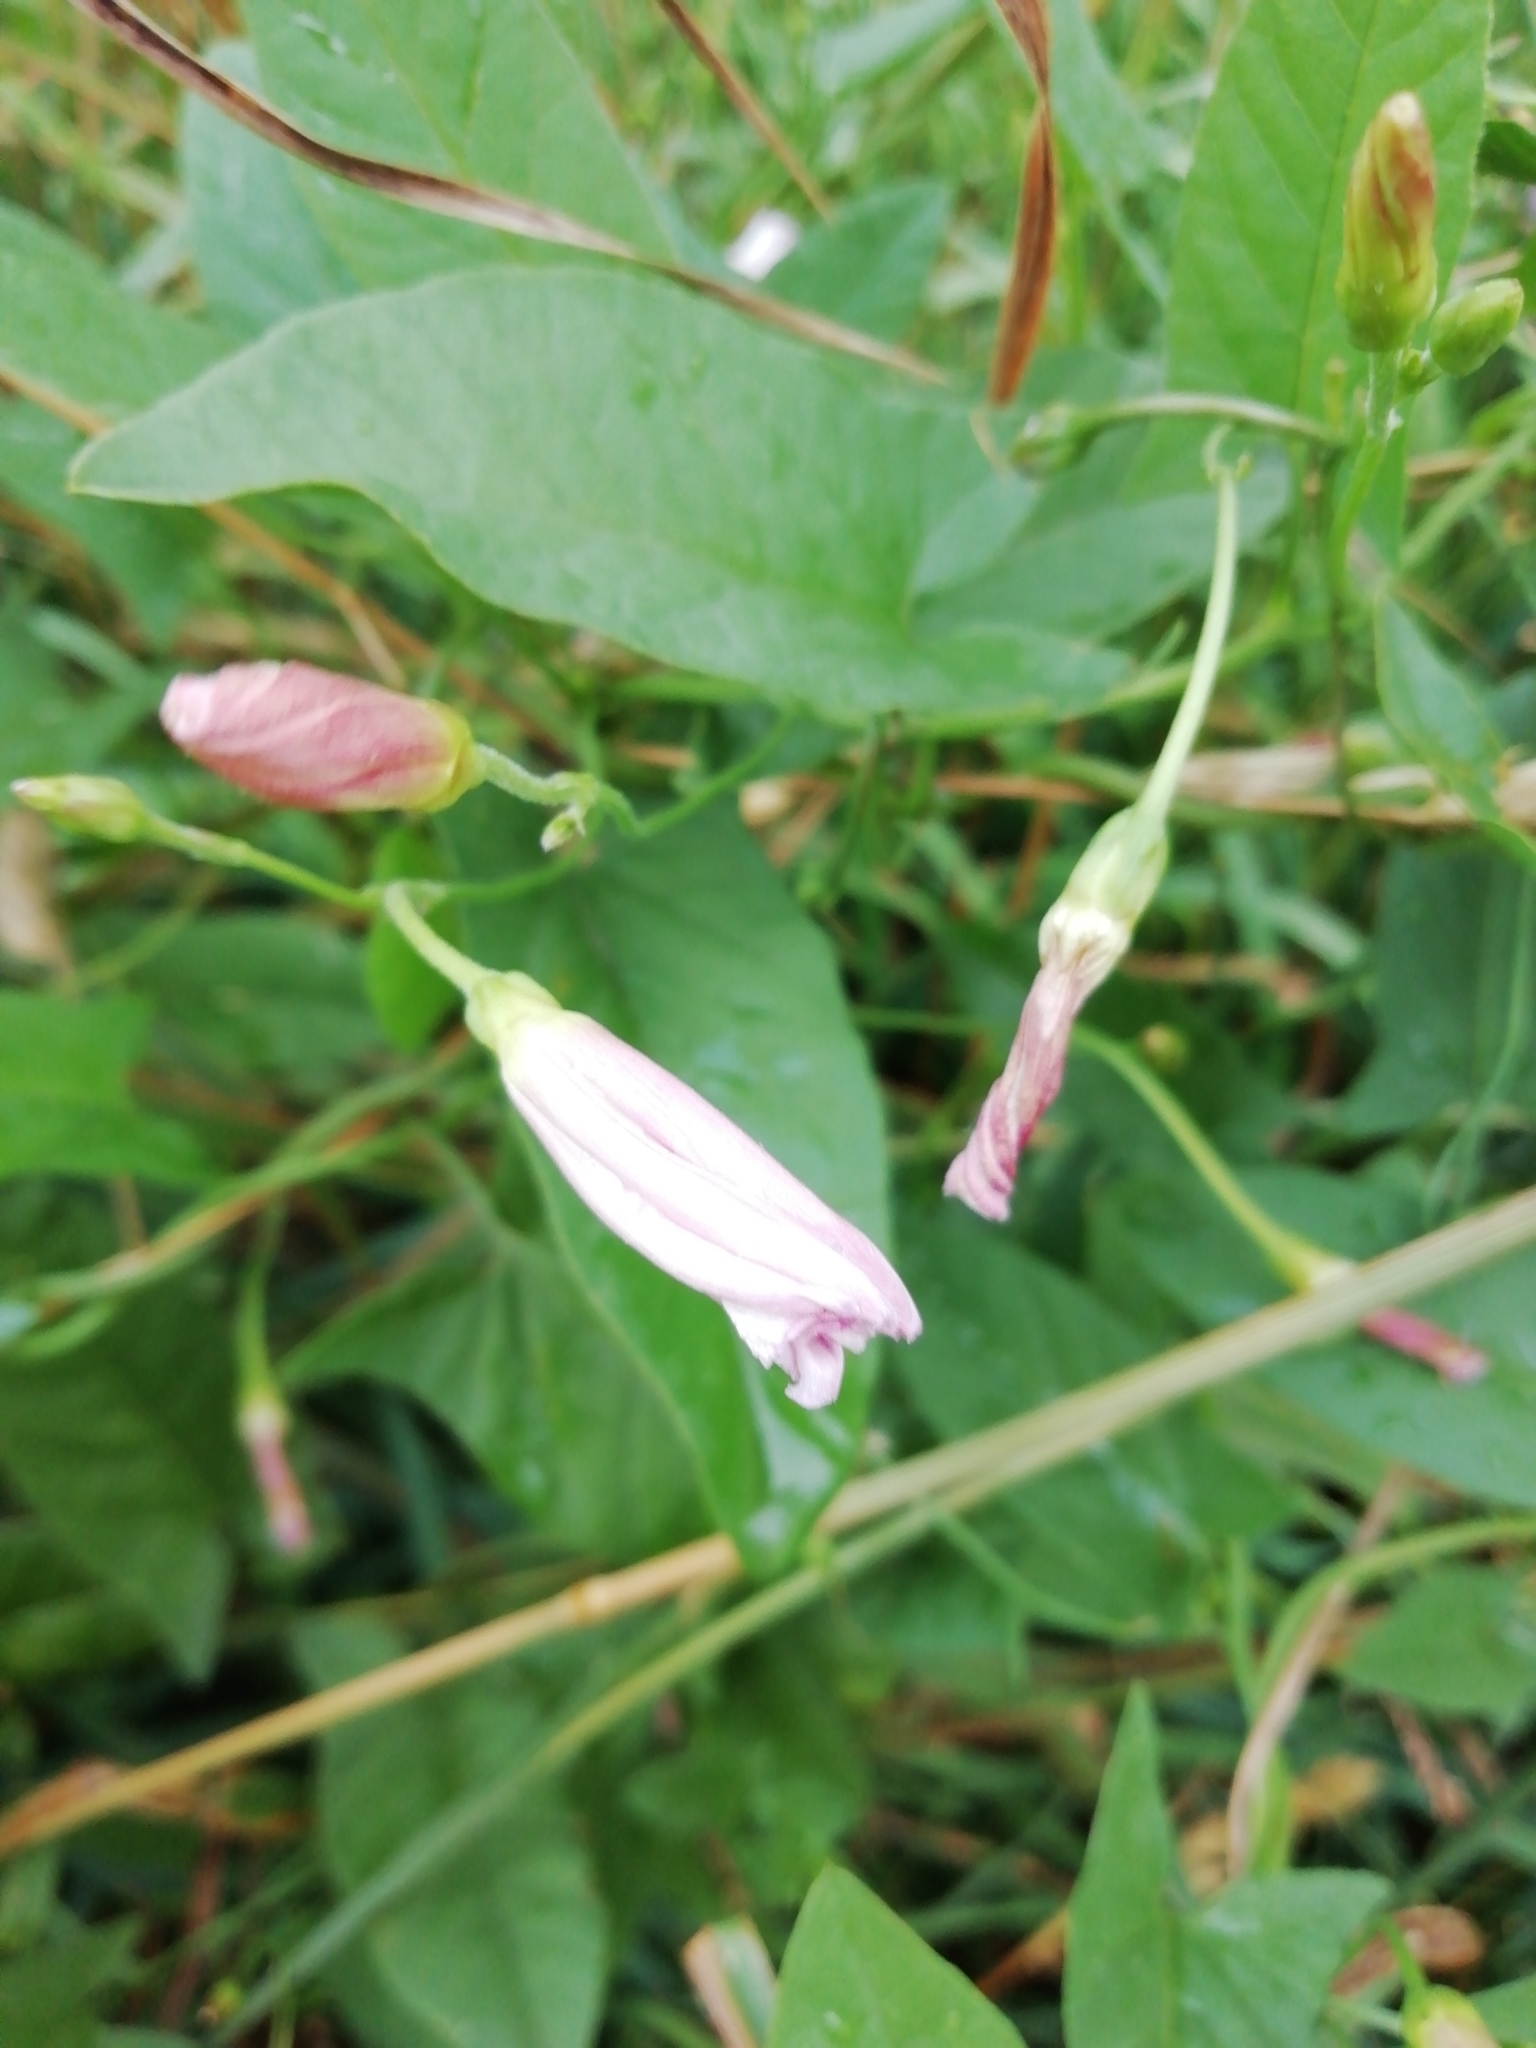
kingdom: Plantae
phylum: Tracheophyta
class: Magnoliopsida
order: Solanales
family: Convolvulaceae
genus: Convolvulus
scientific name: Convolvulus arvensis
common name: Field bindweed
